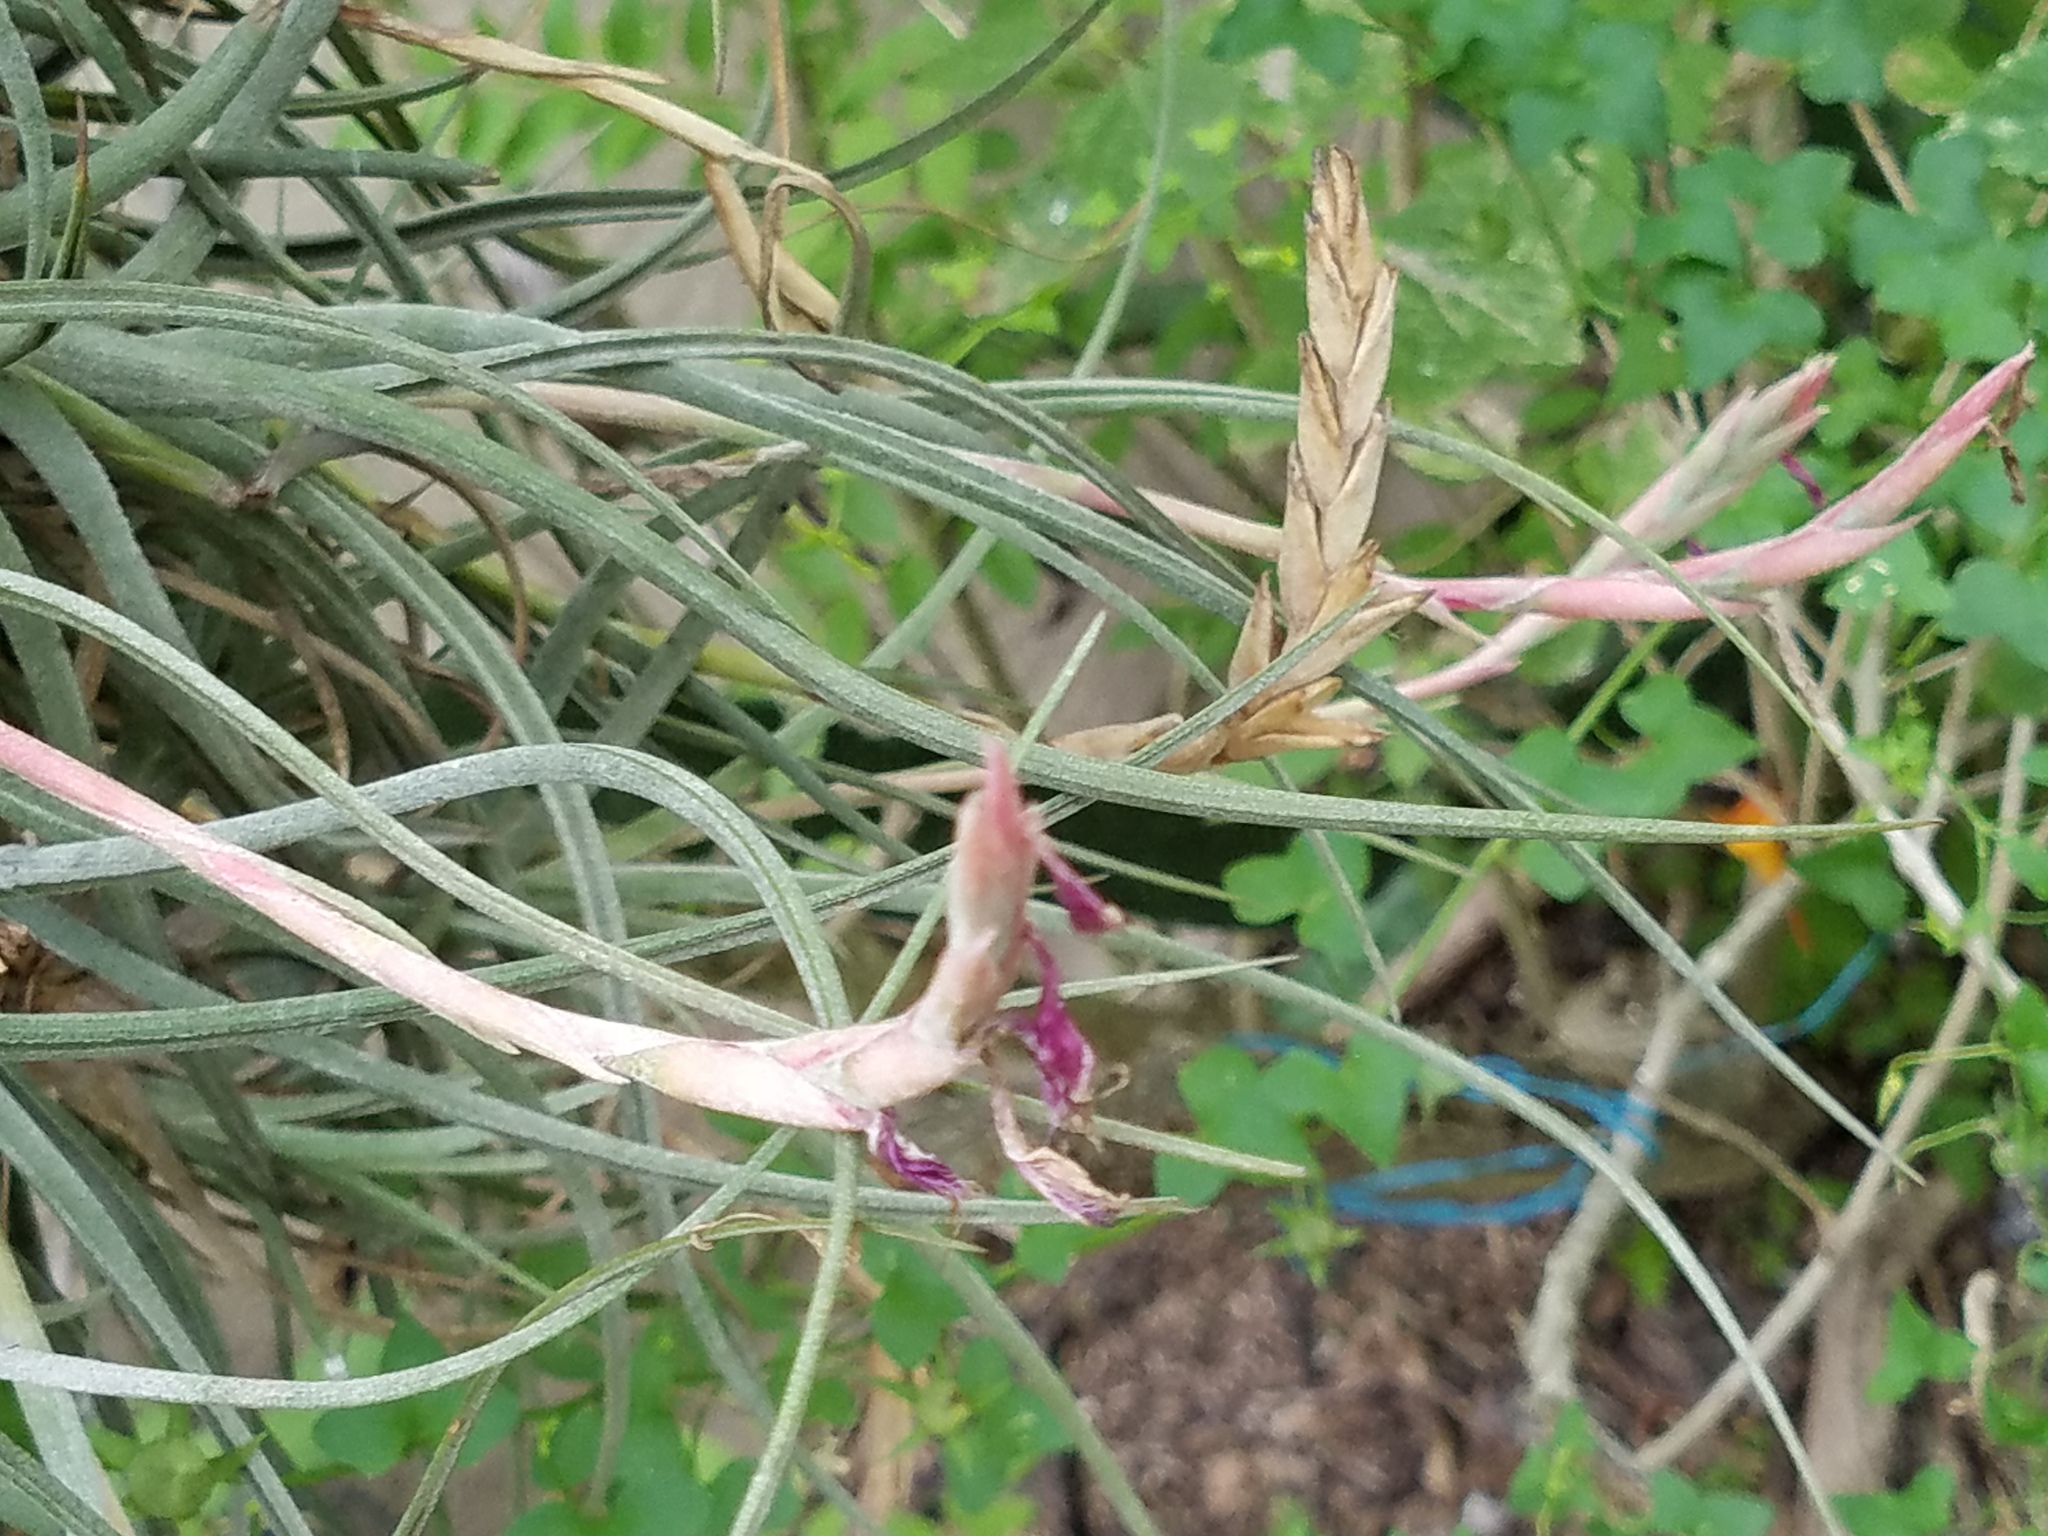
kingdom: Plantae
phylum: Tracheophyta
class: Liliopsida
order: Poales
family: Bromeliaceae
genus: Tillandsia
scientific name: Tillandsia baileyi
